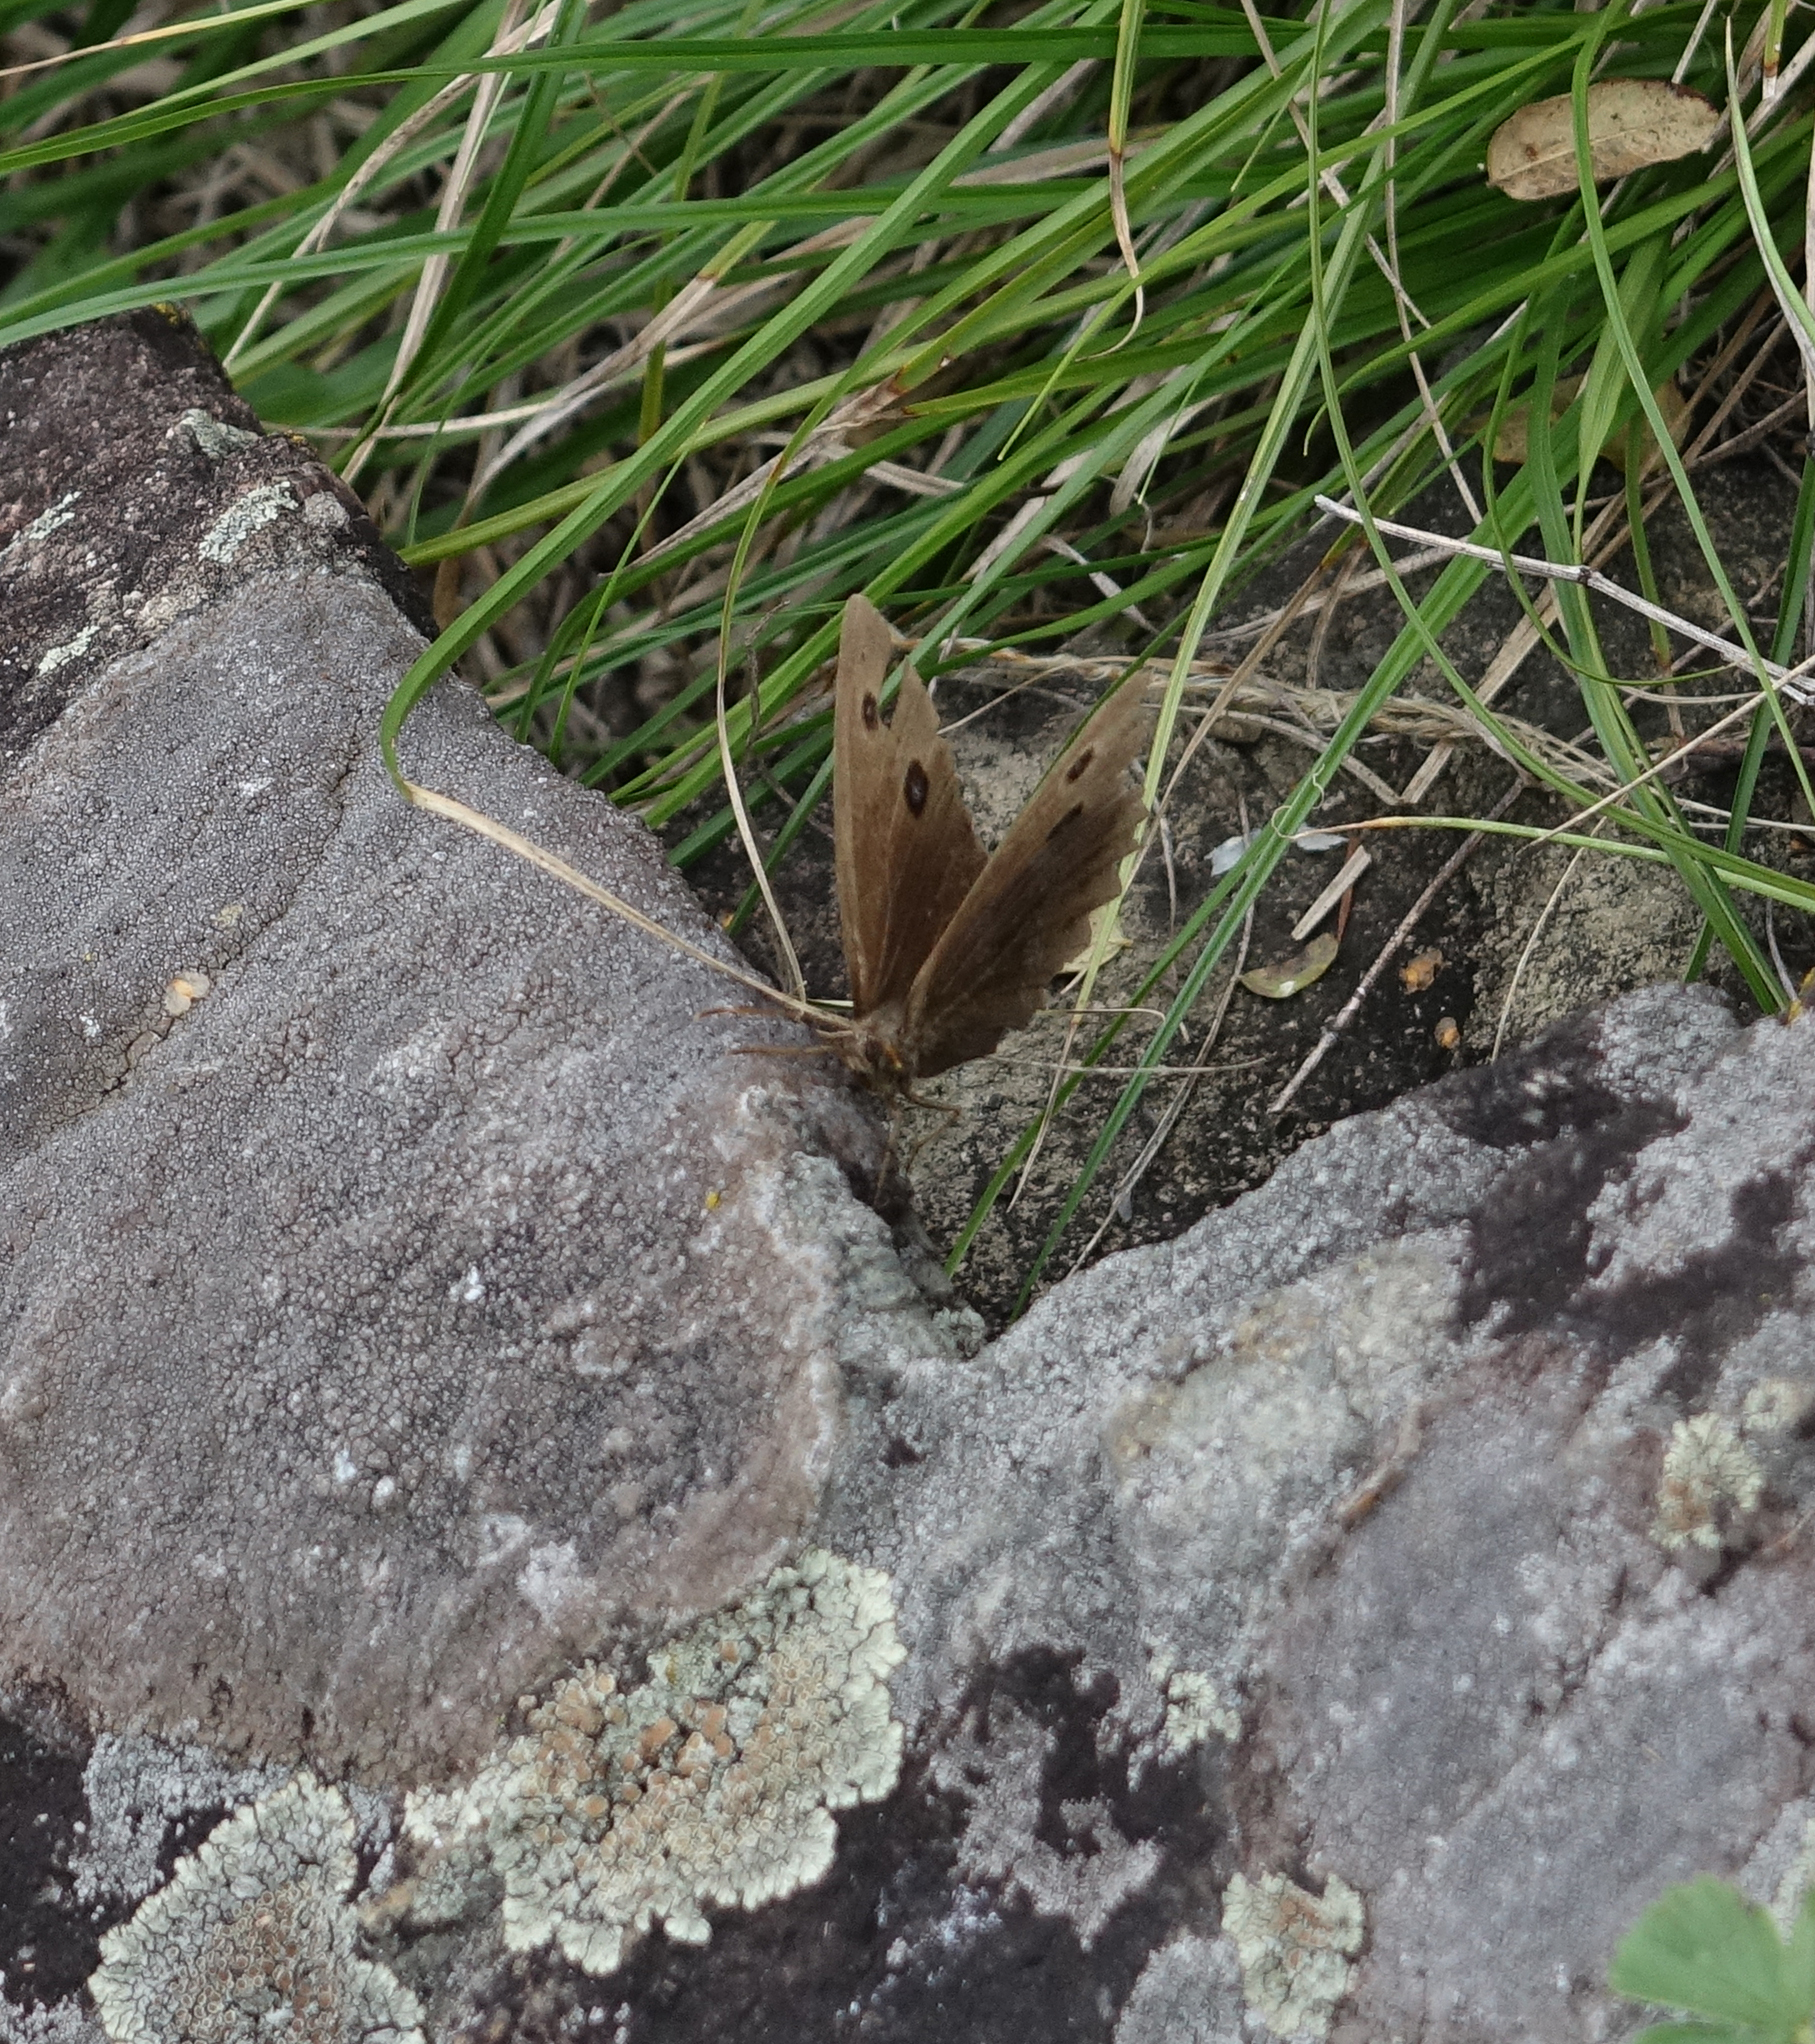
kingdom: Animalia
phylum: Arthropoda
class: Insecta
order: Lepidoptera
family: Nymphalidae
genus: Minois
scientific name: Minois dryas
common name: Dryad
